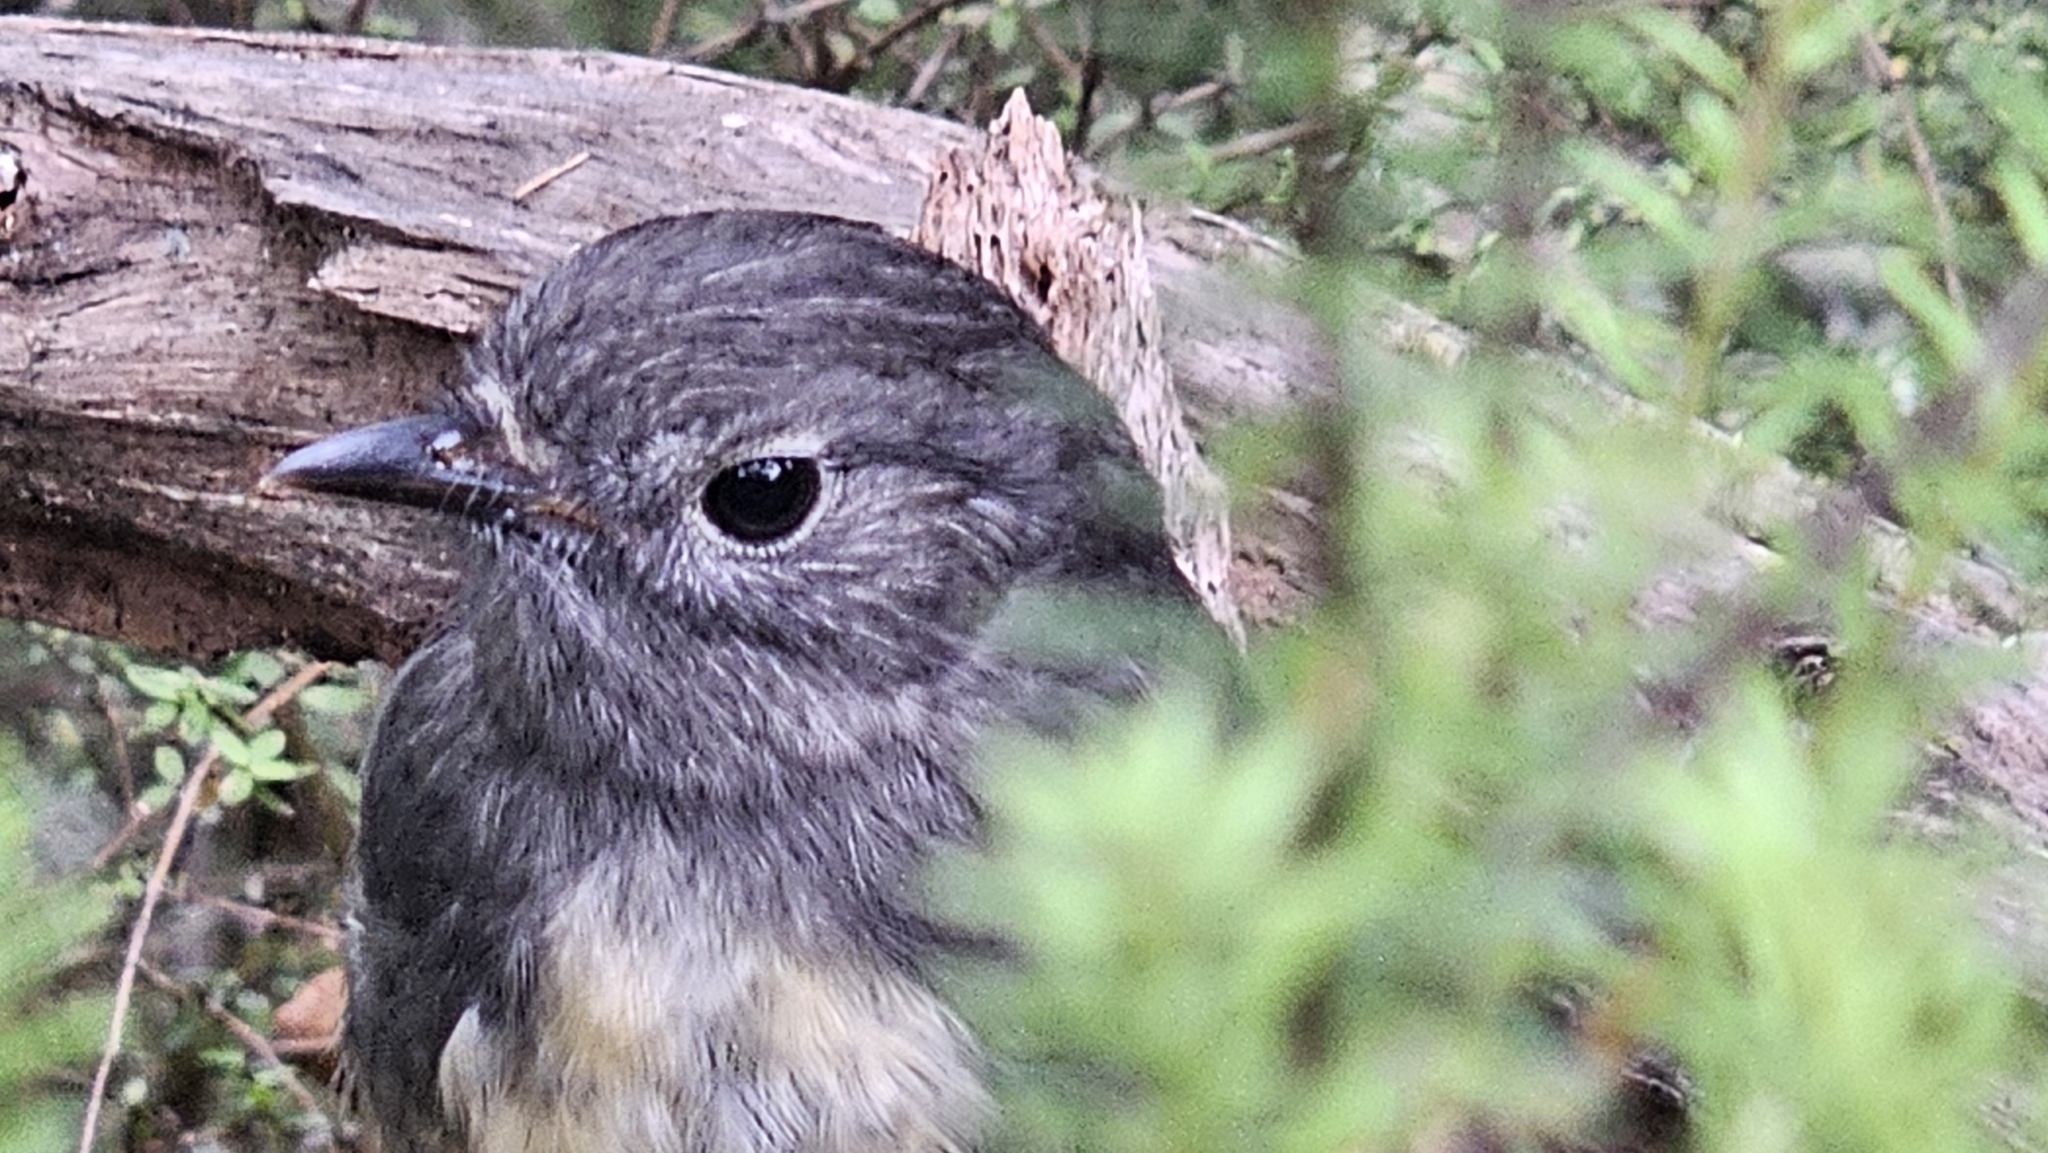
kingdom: Animalia
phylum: Chordata
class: Aves
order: Passeriformes
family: Petroicidae
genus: Petroica
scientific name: Petroica australis
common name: New zealand robin
